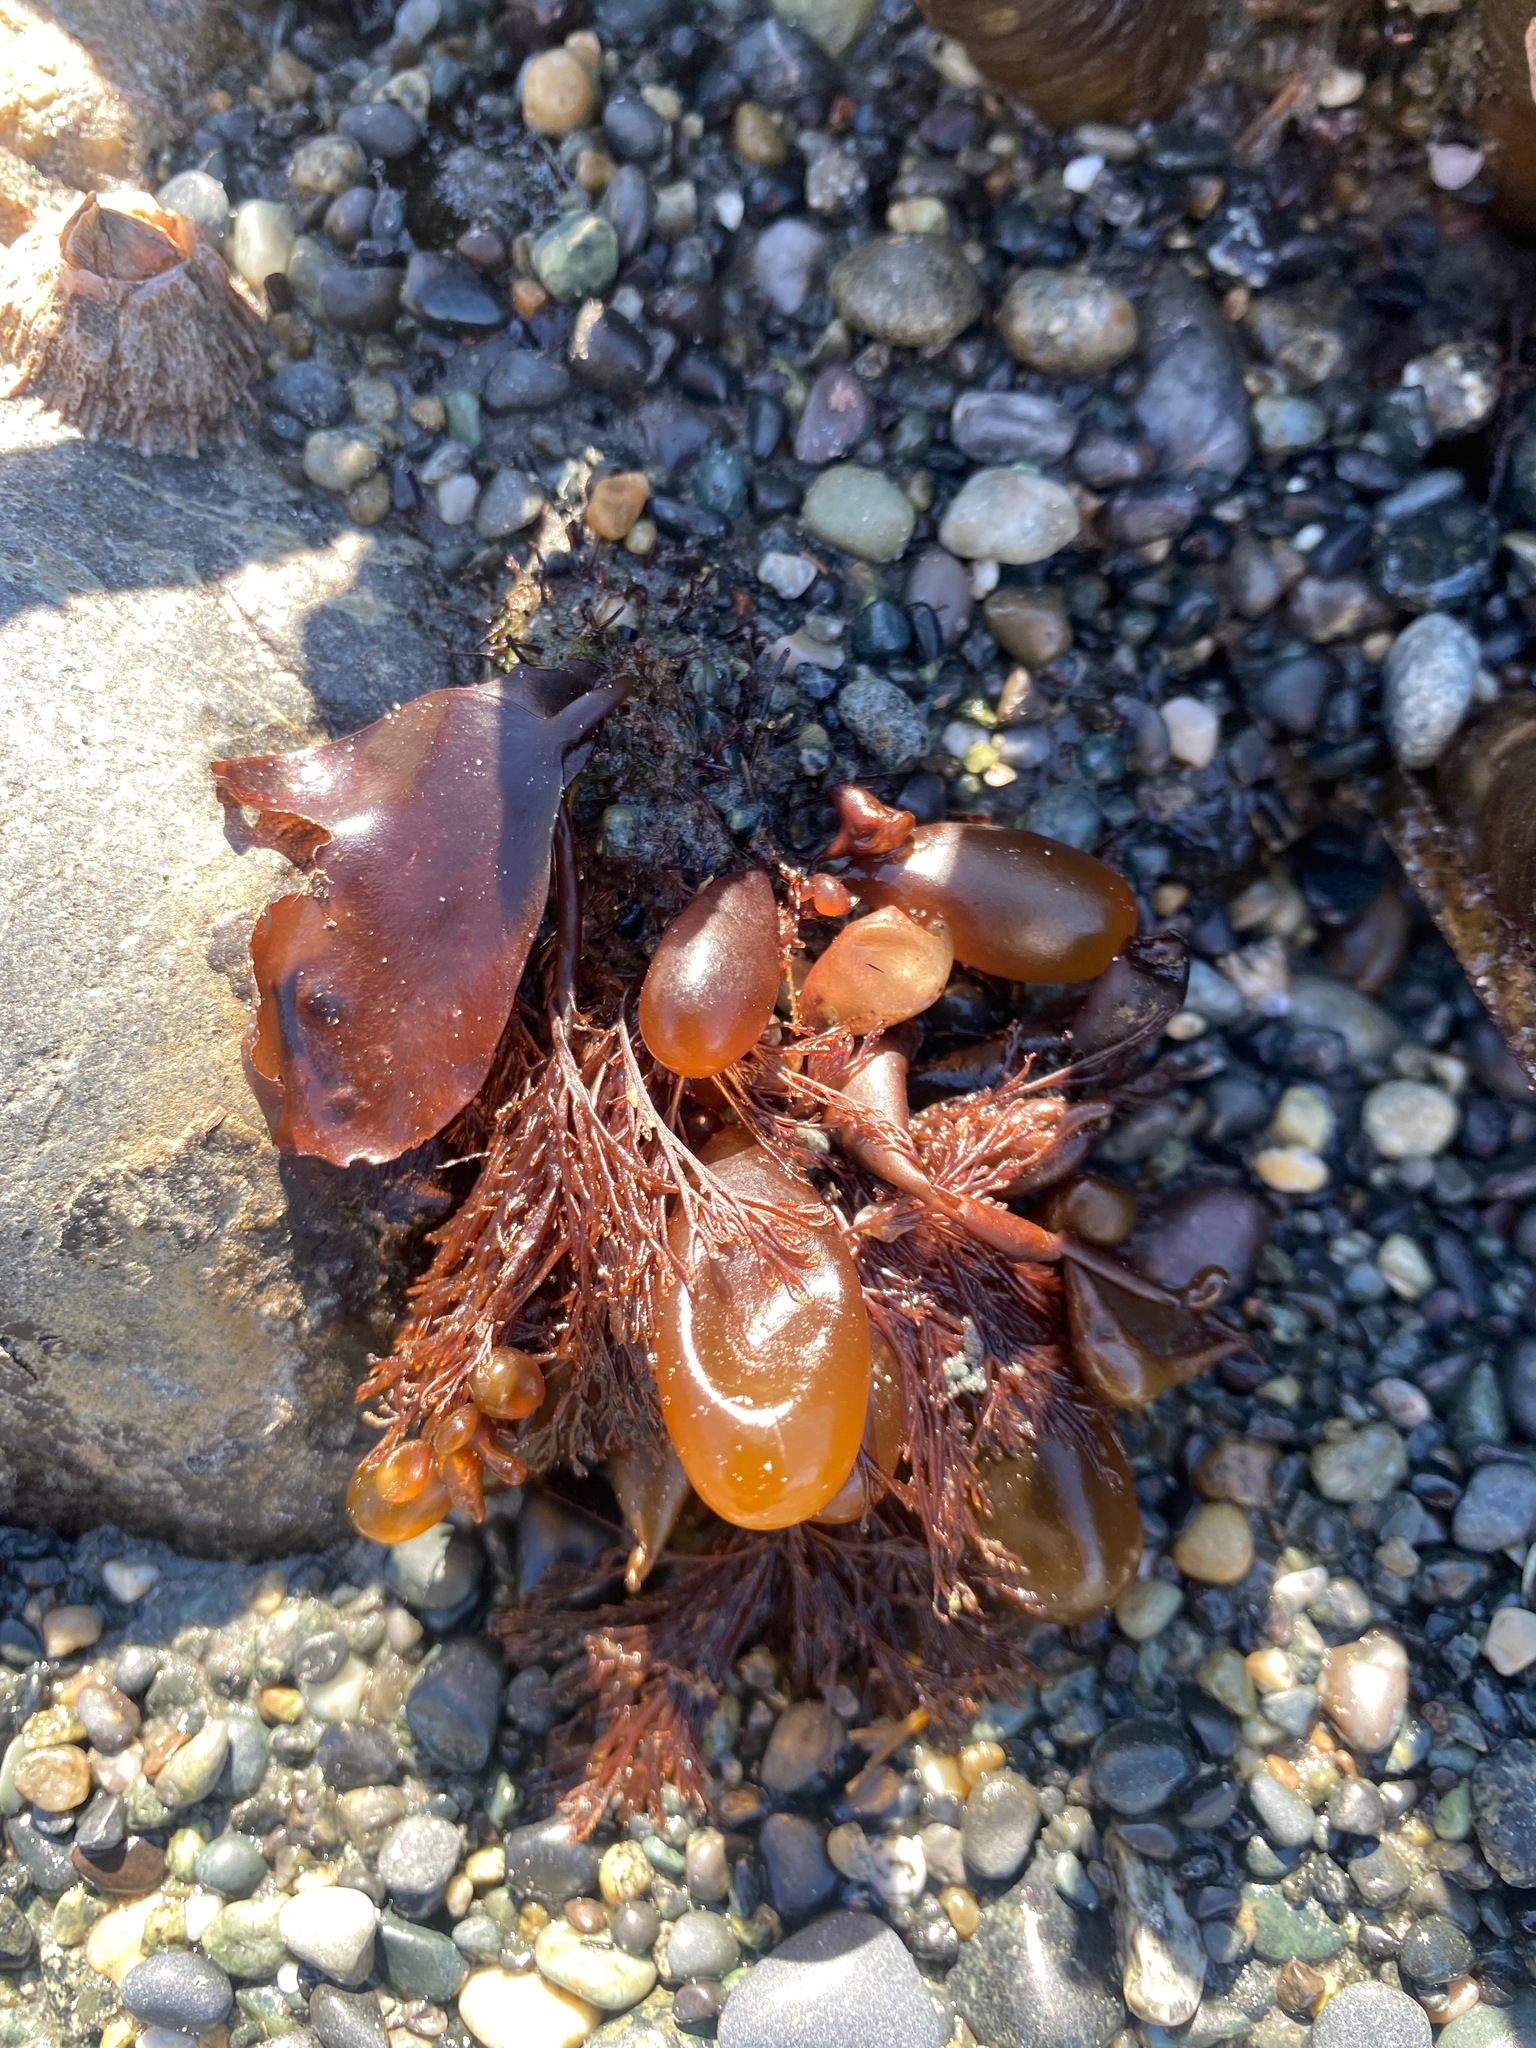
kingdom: Plantae
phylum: Rhodophyta
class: Florideophyceae
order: Palmariales
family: Palmariaceae
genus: Halosaccion
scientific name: Halosaccion glandiforme
